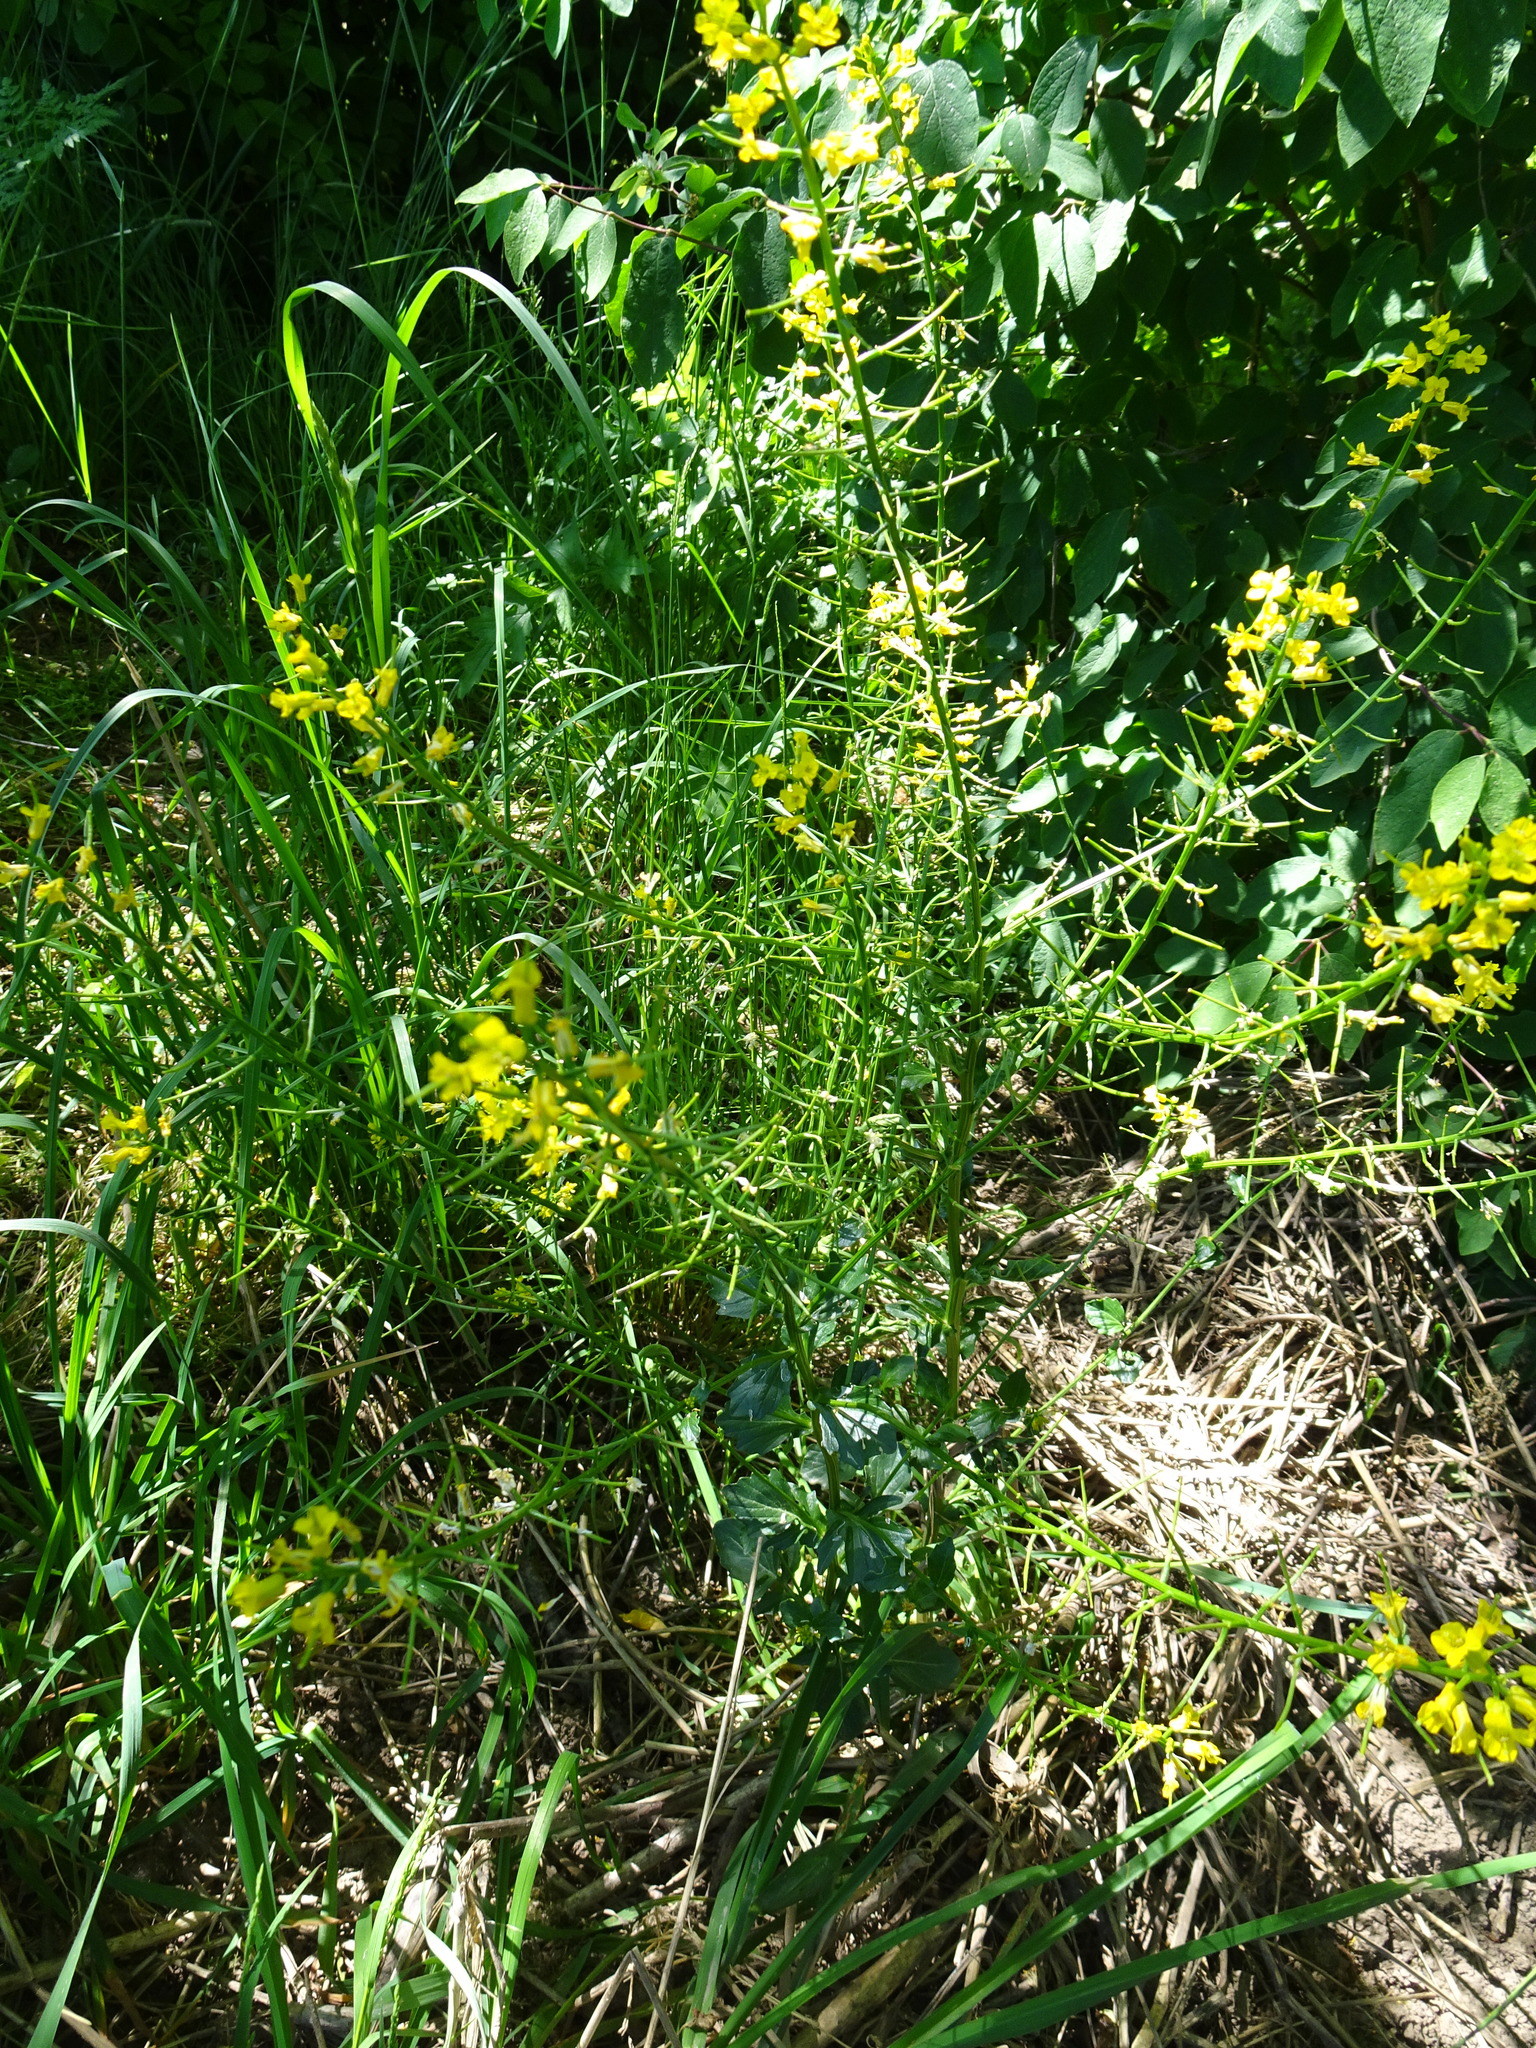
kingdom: Plantae
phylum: Tracheophyta
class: Magnoliopsida
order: Brassicales
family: Brassicaceae
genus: Barbarea
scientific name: Barbarea vulgaris
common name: Cressy-greens
